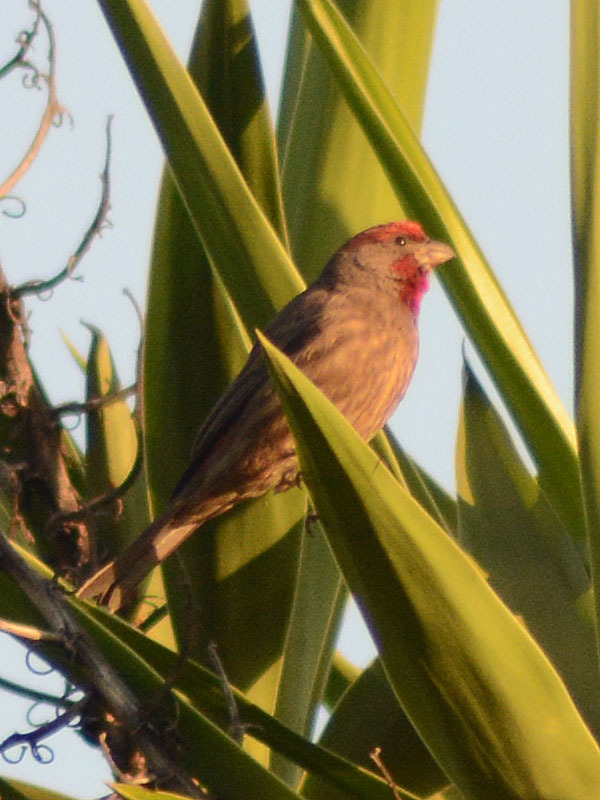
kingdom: Animalia
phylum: Chordata
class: Aves
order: Passeriformes
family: Fringillidae
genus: Haemorhous
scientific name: Haemorhous mexicanus
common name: House finch
